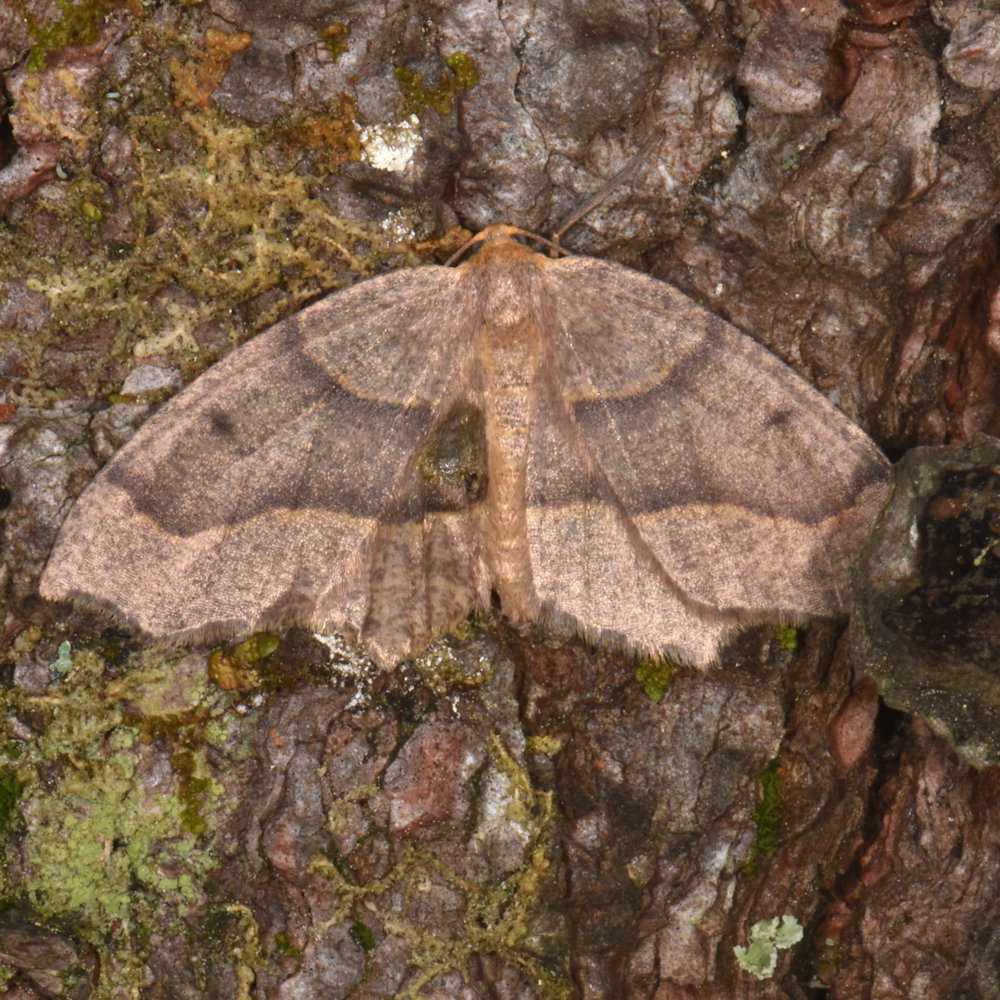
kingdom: Animalia
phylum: Arthropoda
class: Insecta
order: Lepidoptera
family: Geometridae
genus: Lambdina
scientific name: Lambdina fiscellaria
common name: Hemlock looper
